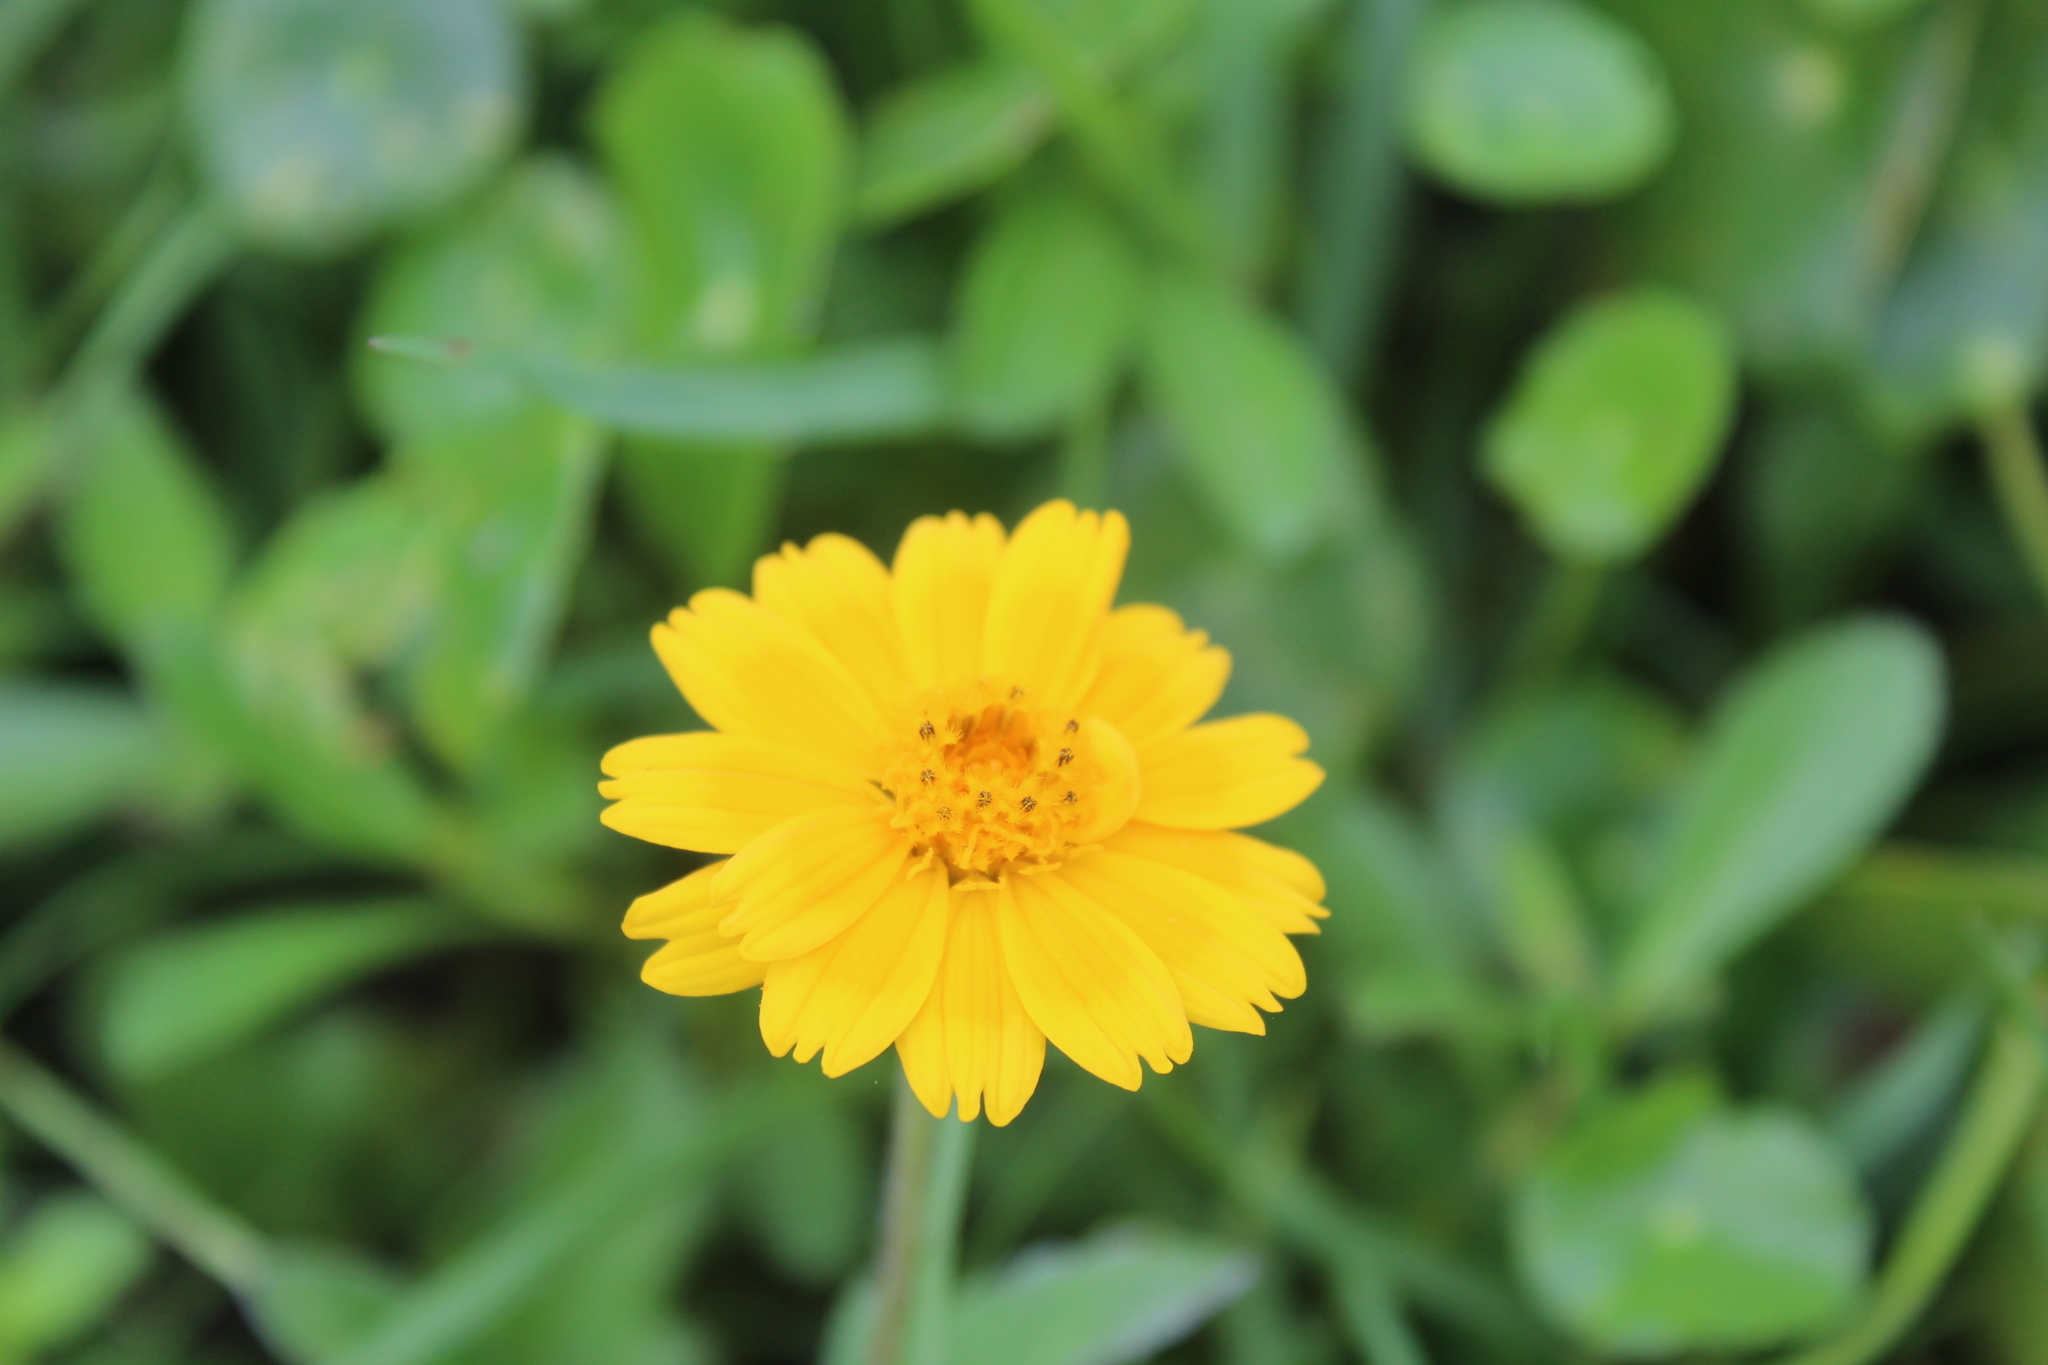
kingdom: Plantae
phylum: Tracheophyta
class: Magnoliopsida
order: Asterales
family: Asteraceae
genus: Sphagneticola
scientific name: Sphagneticola trilobata
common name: Bay biscayne creeping-oxeye
